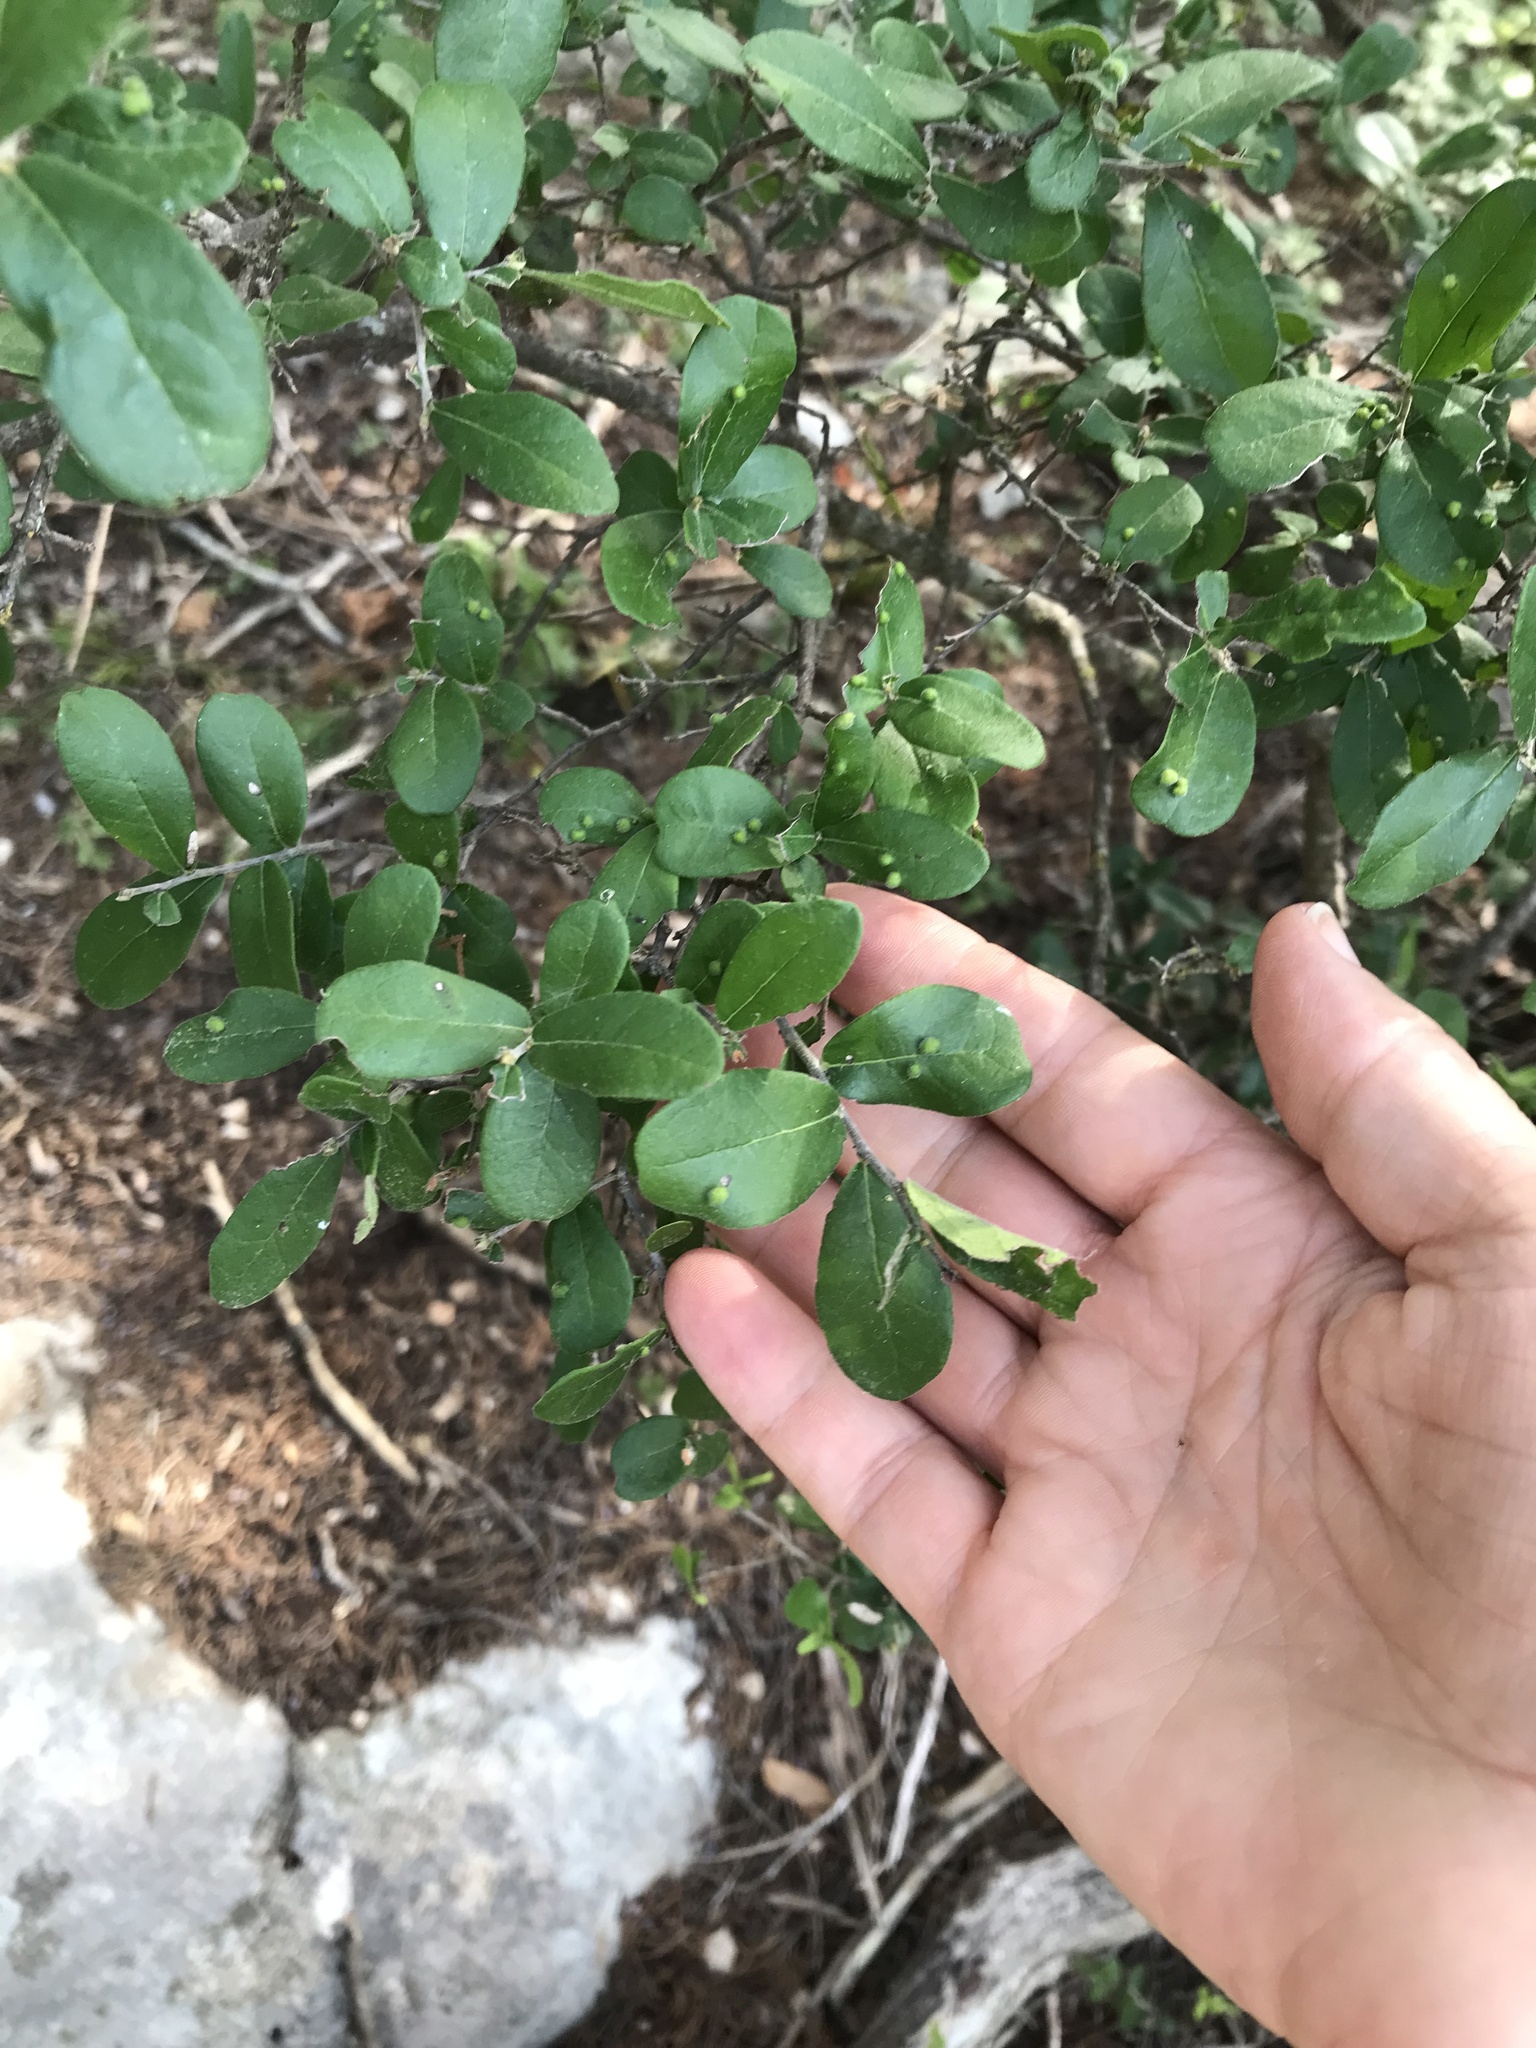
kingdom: Plantae
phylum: Tracheophyta
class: Magnoliopsida
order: Ericales
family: Ebenaceae
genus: Diospyros
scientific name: Diospyros texana
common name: Texas persimmon
